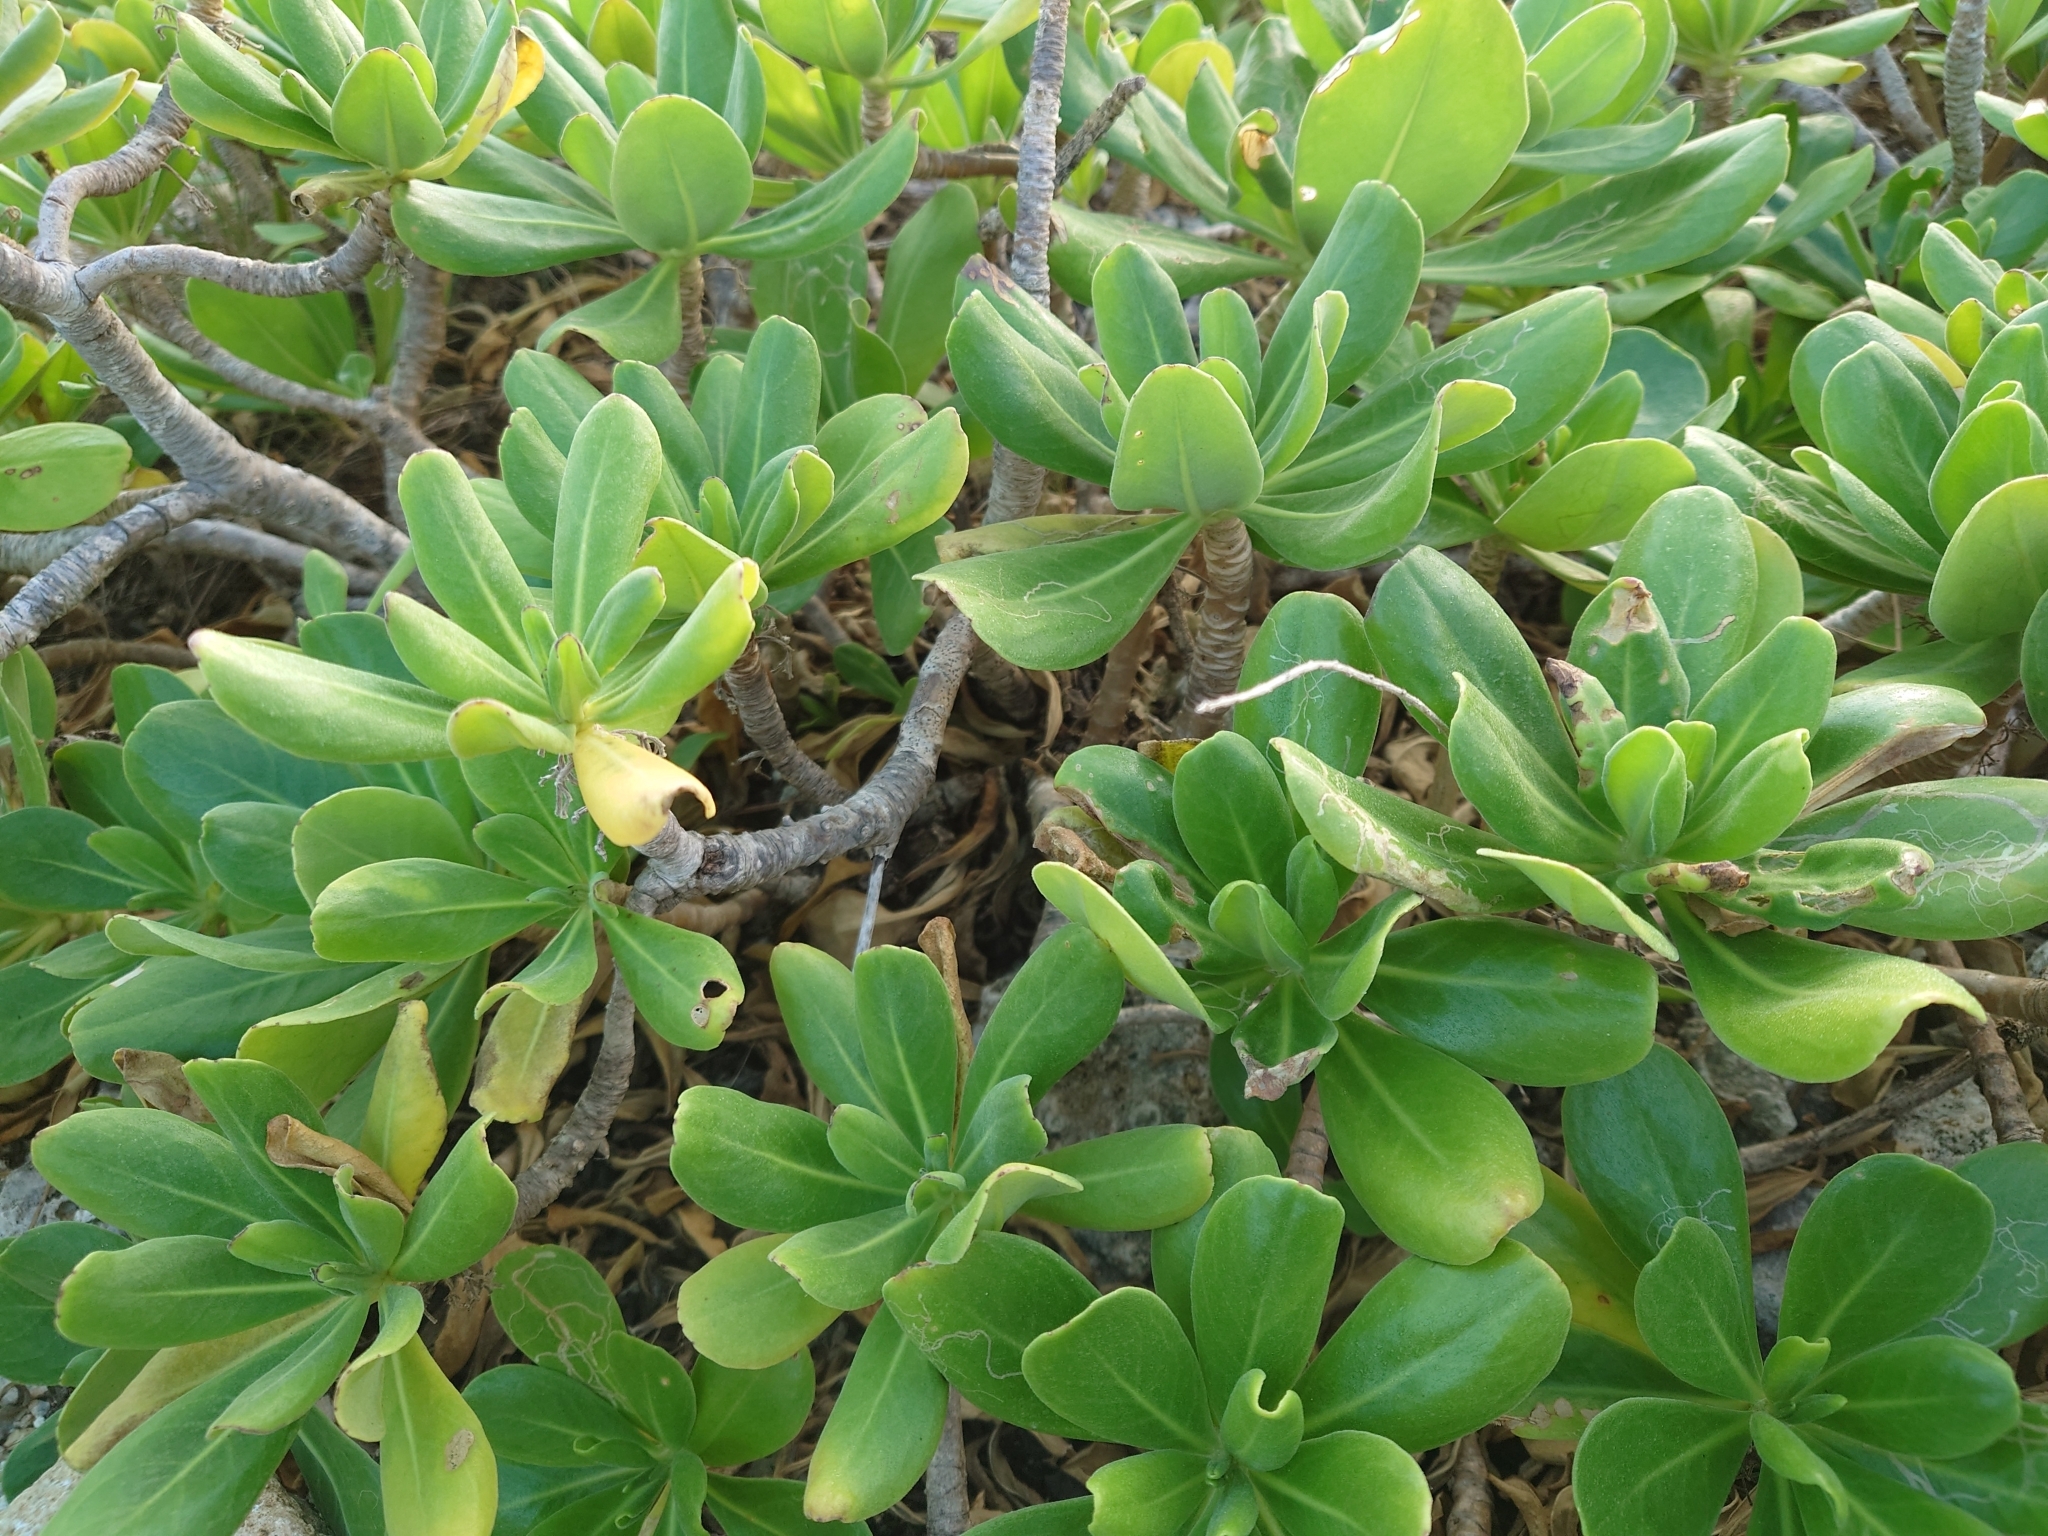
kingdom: Plantae
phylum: Tracheophyta
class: Magnoliopsida
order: Asterales
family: Goodeniaceae
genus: Scaevola
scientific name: Scaevola taccada
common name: Sea lettucetree
